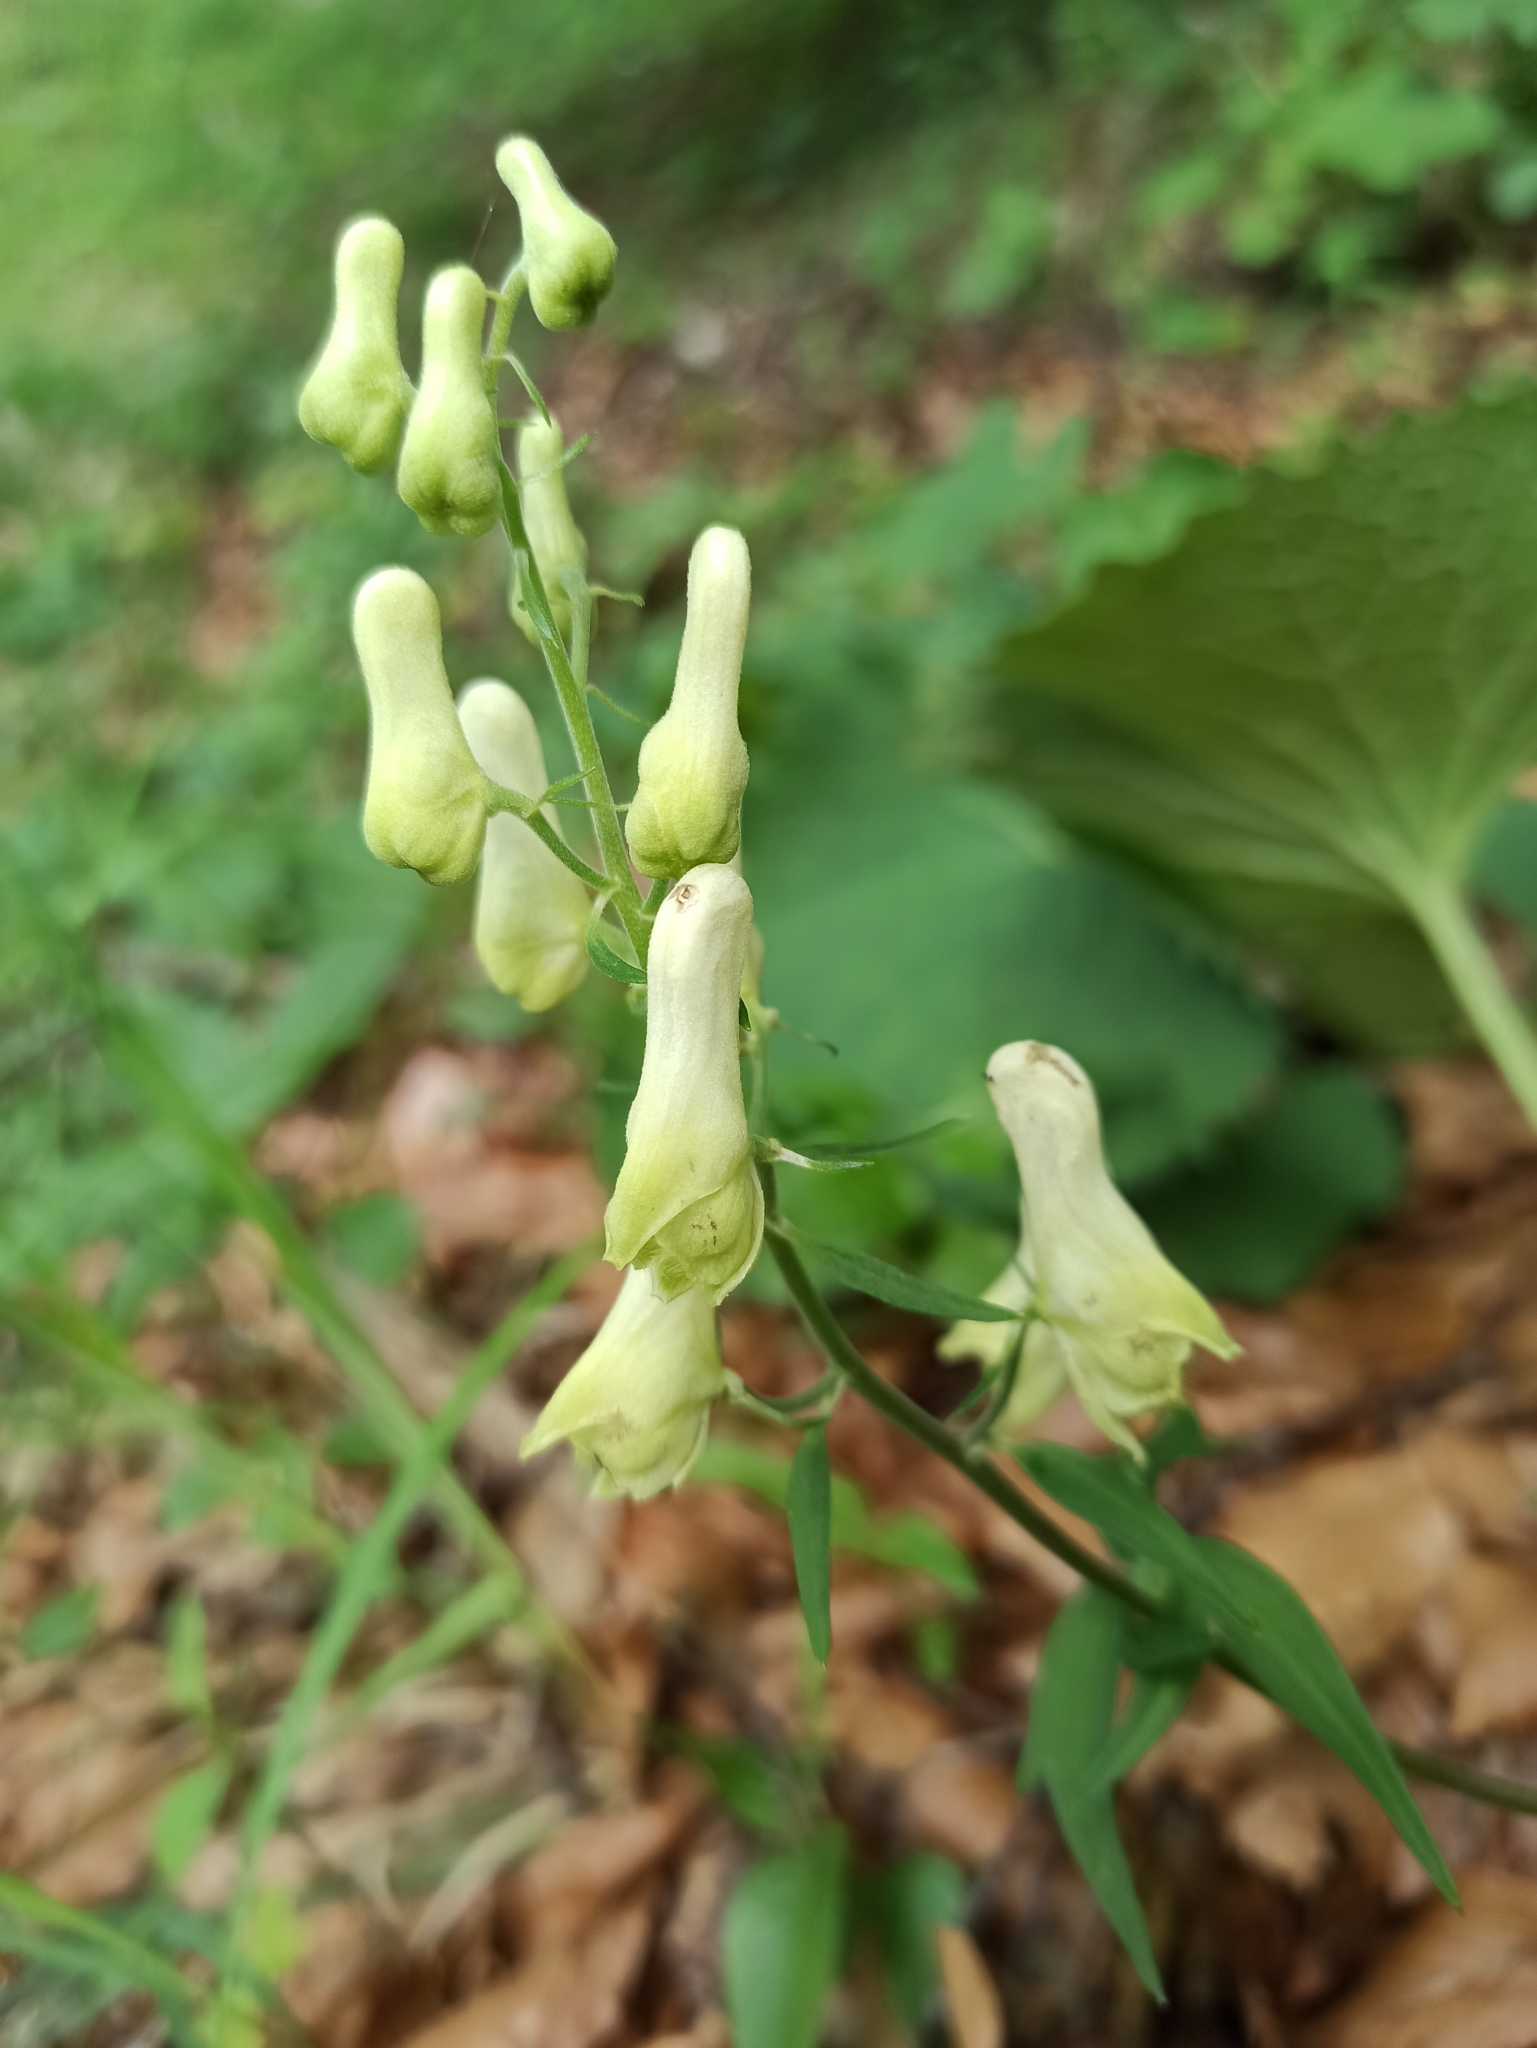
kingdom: Plantae
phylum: Tracheophyta
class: Magnoliopsida
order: Ranunculales
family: Ranunculaceae
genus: Aconitum
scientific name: Aconitum lycoctonum
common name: Wolf's-bane
